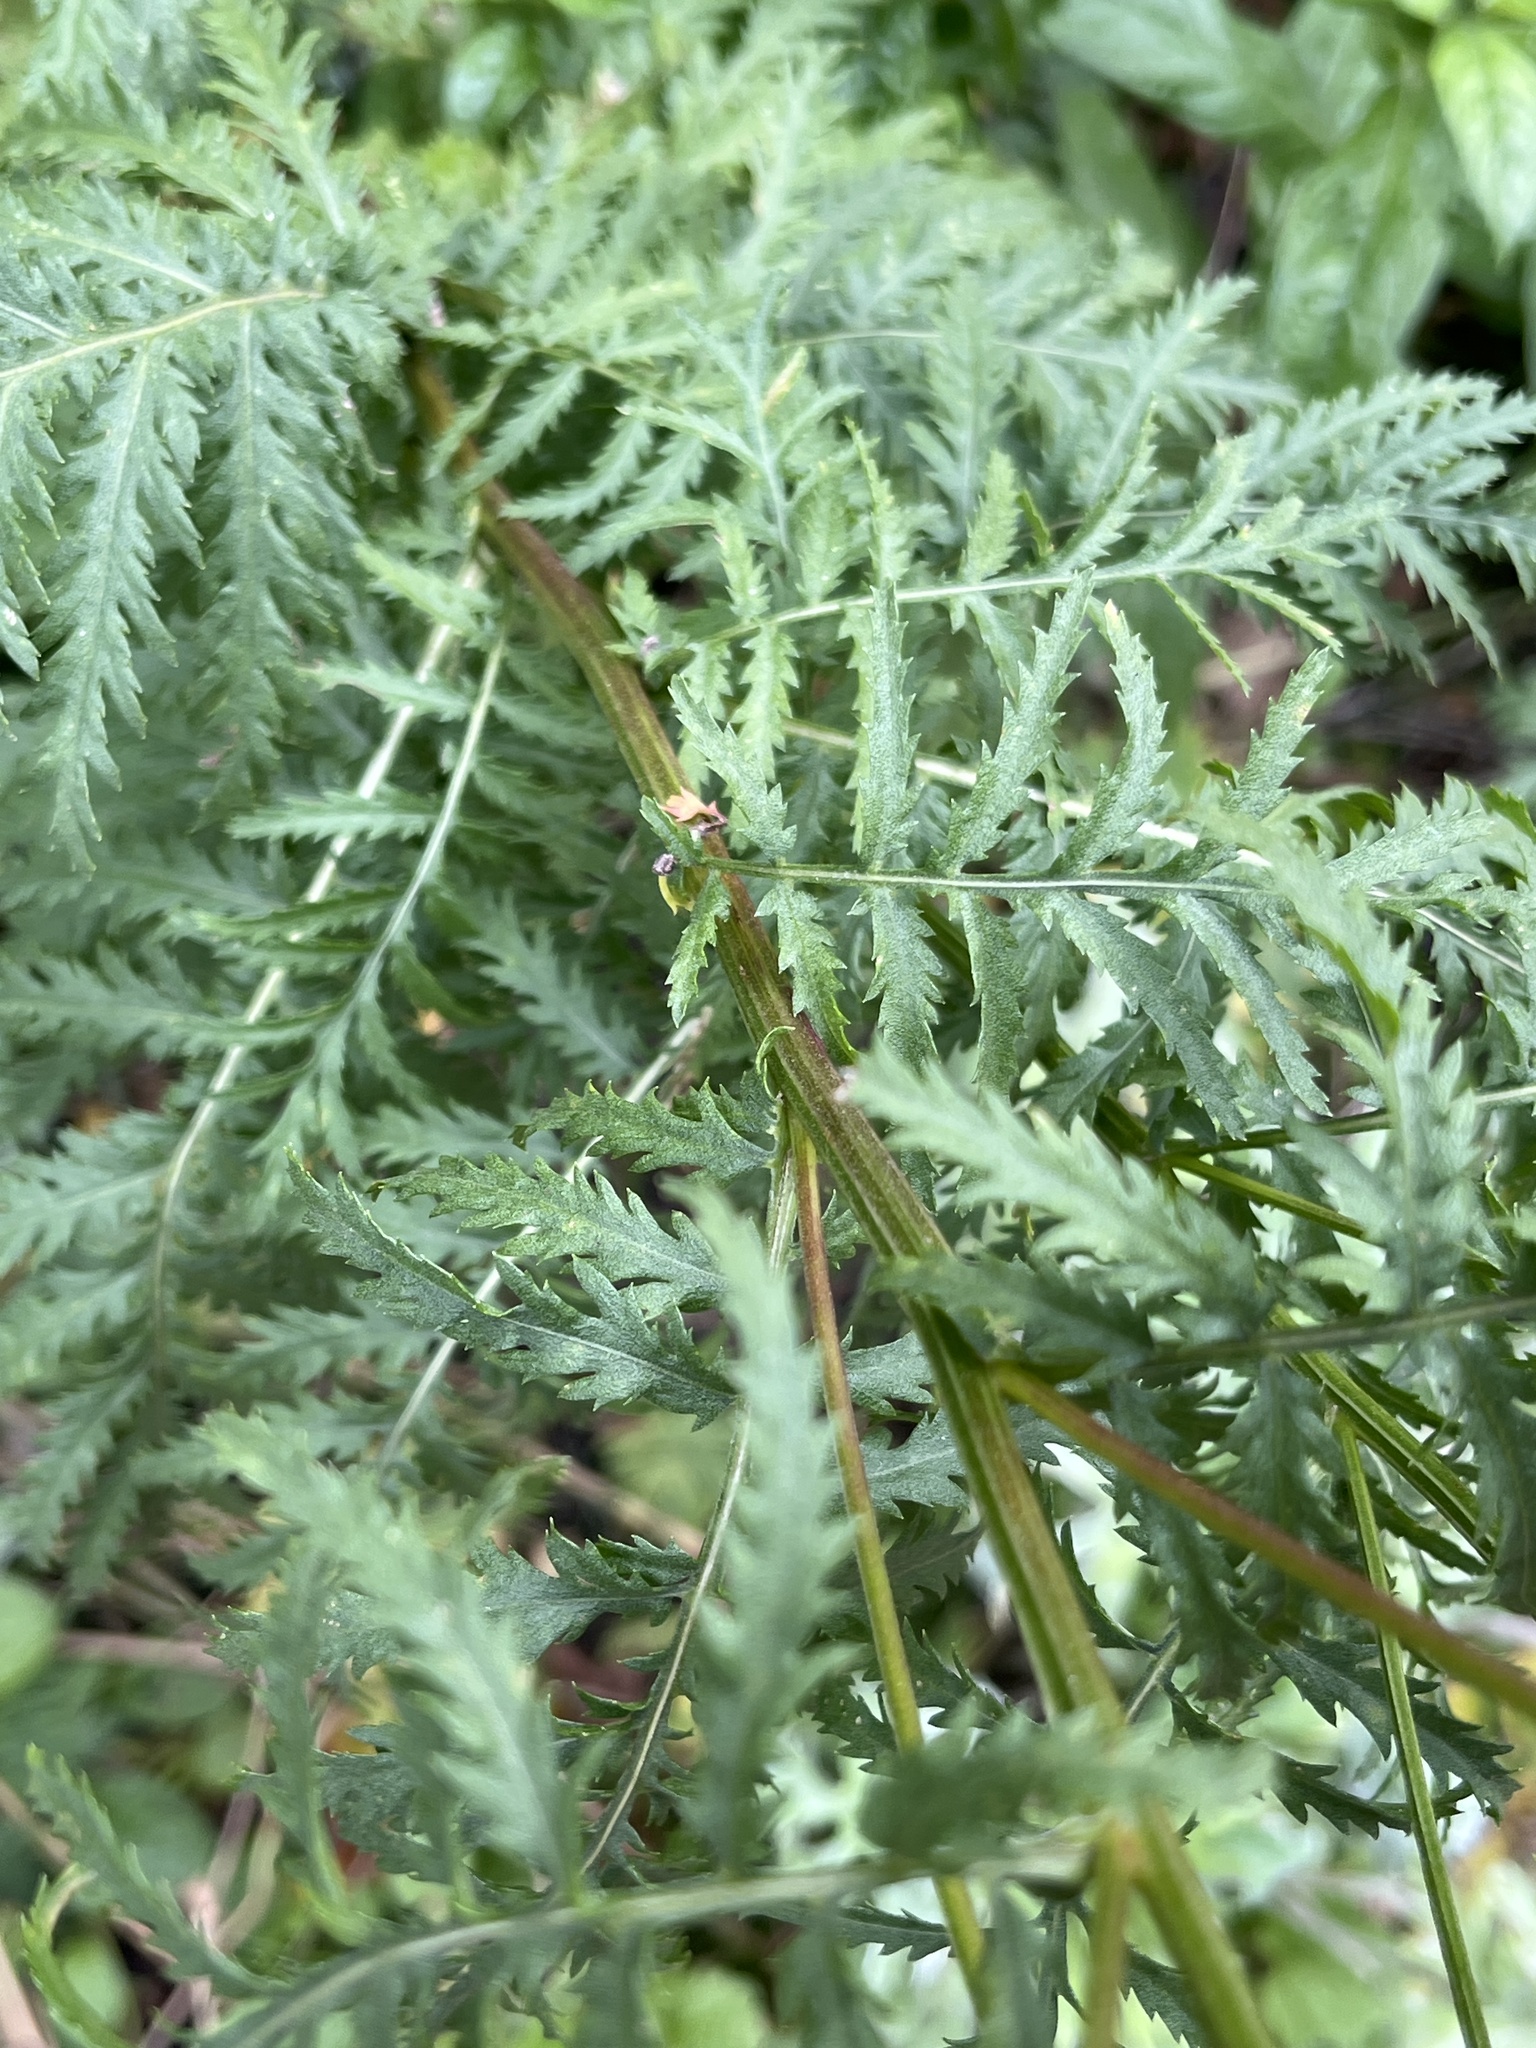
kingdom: Plantae
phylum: Tracheophyta
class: Magnoliopsida
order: Asterales
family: Asteraceae
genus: Tanacetum
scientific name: Tanacetum vulgare
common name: Common tansy
